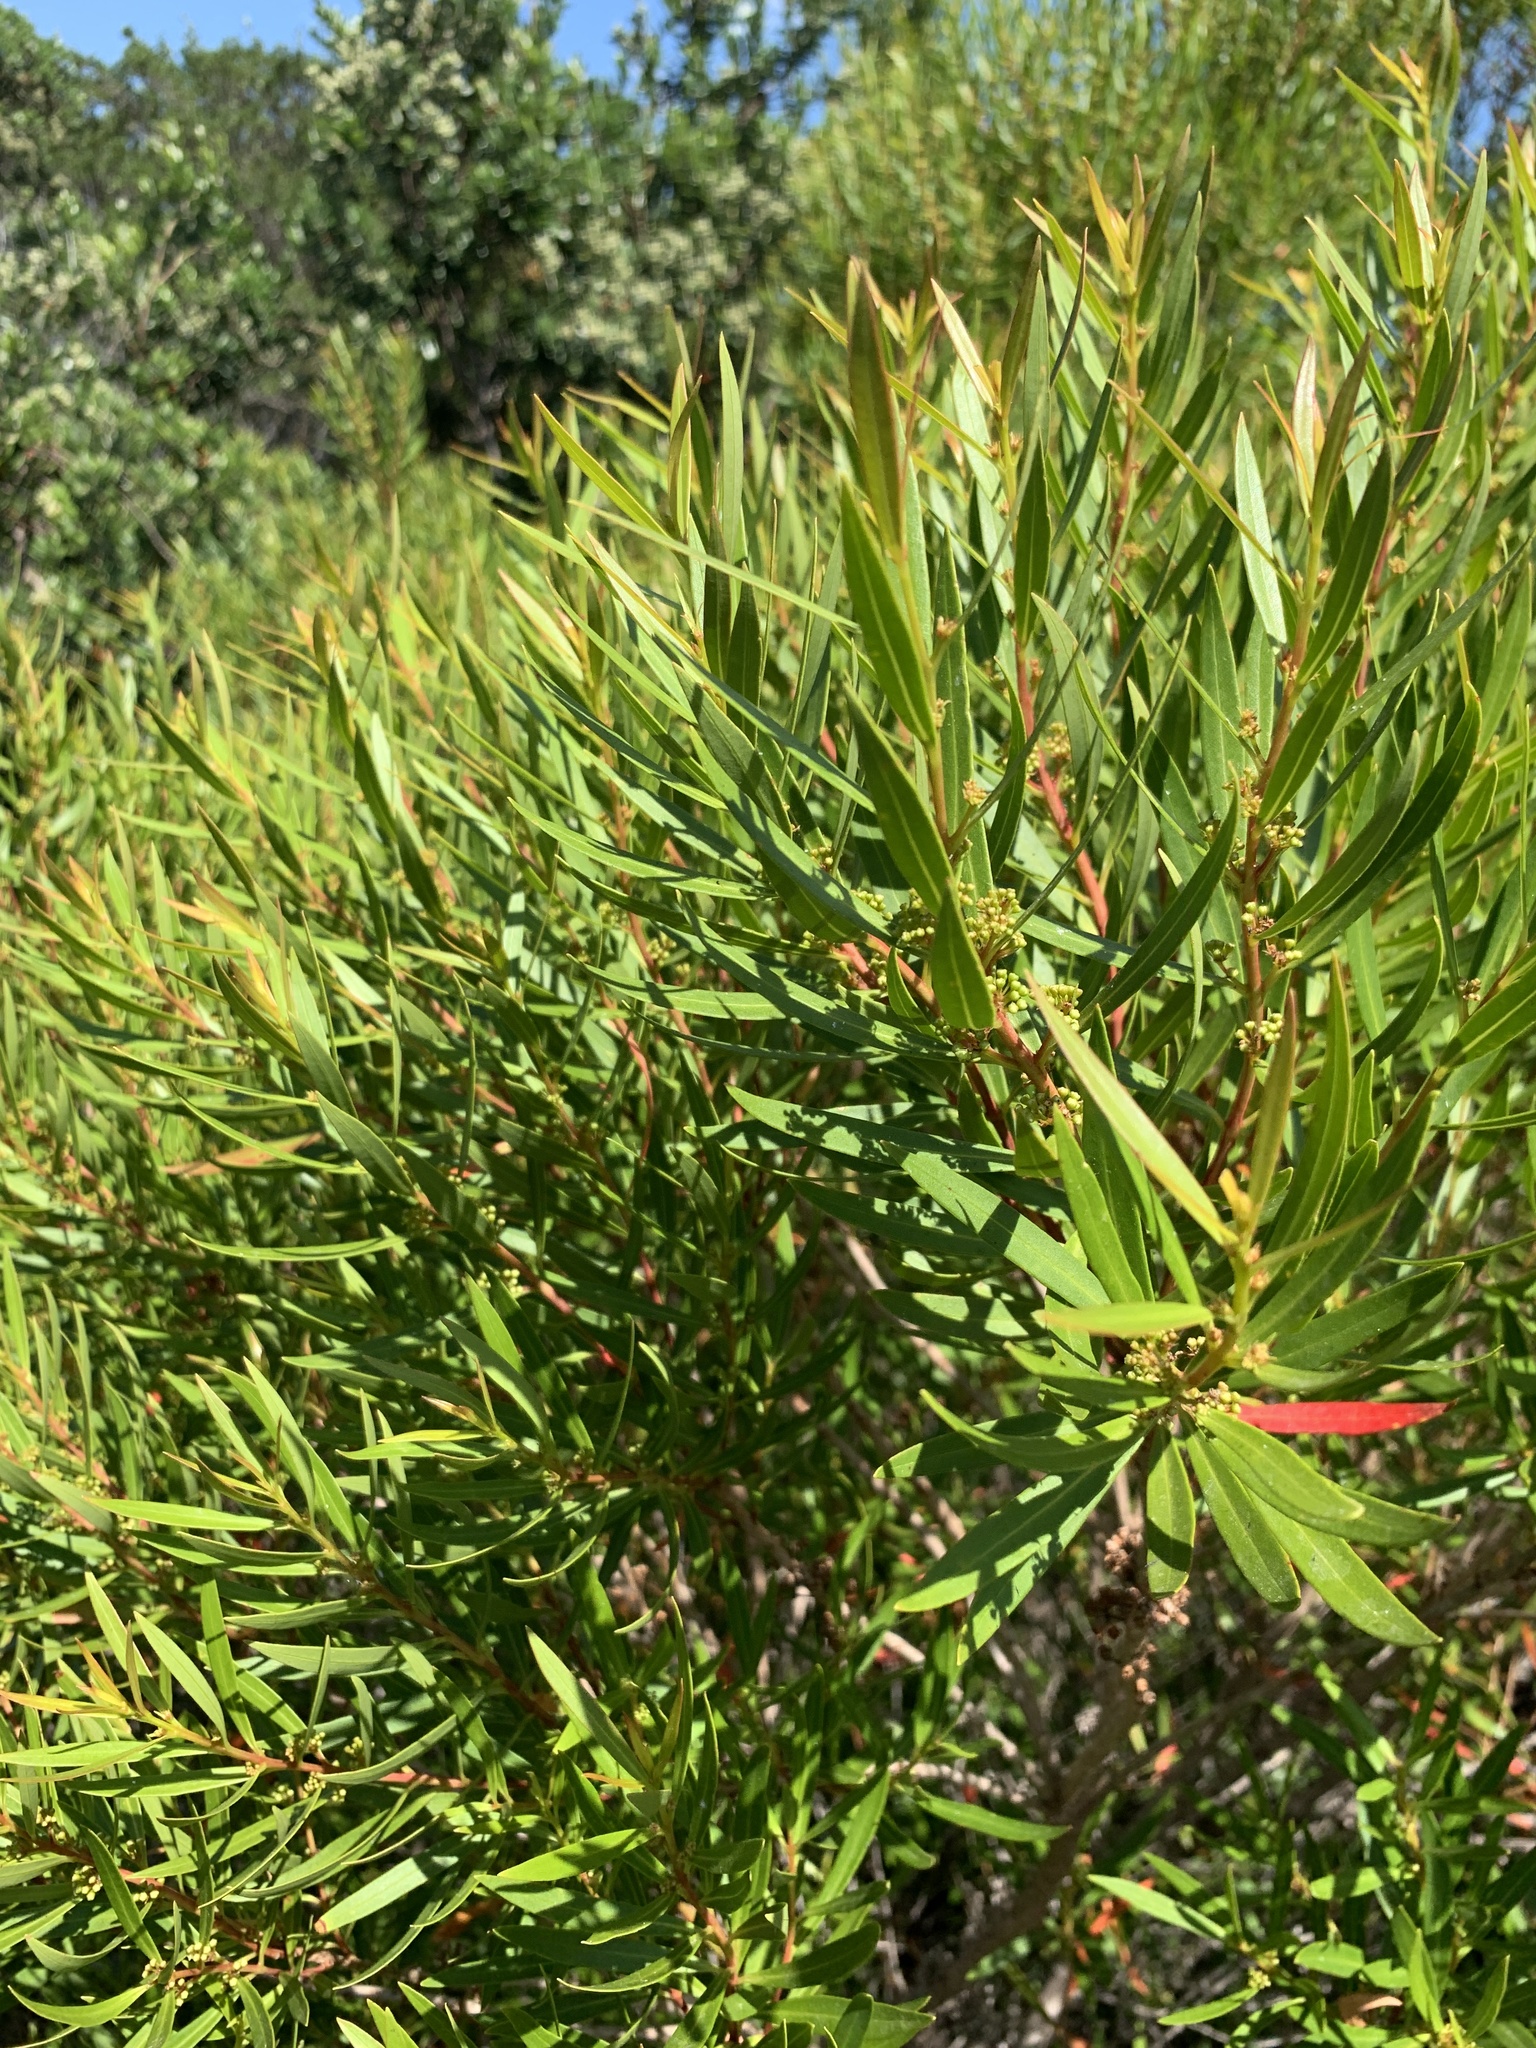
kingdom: Plantae
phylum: Tracheophyta
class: Magnoliopsida
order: Myrtales
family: Myrtaceae
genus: Callistemon
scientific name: Callistemon lanceolatus
